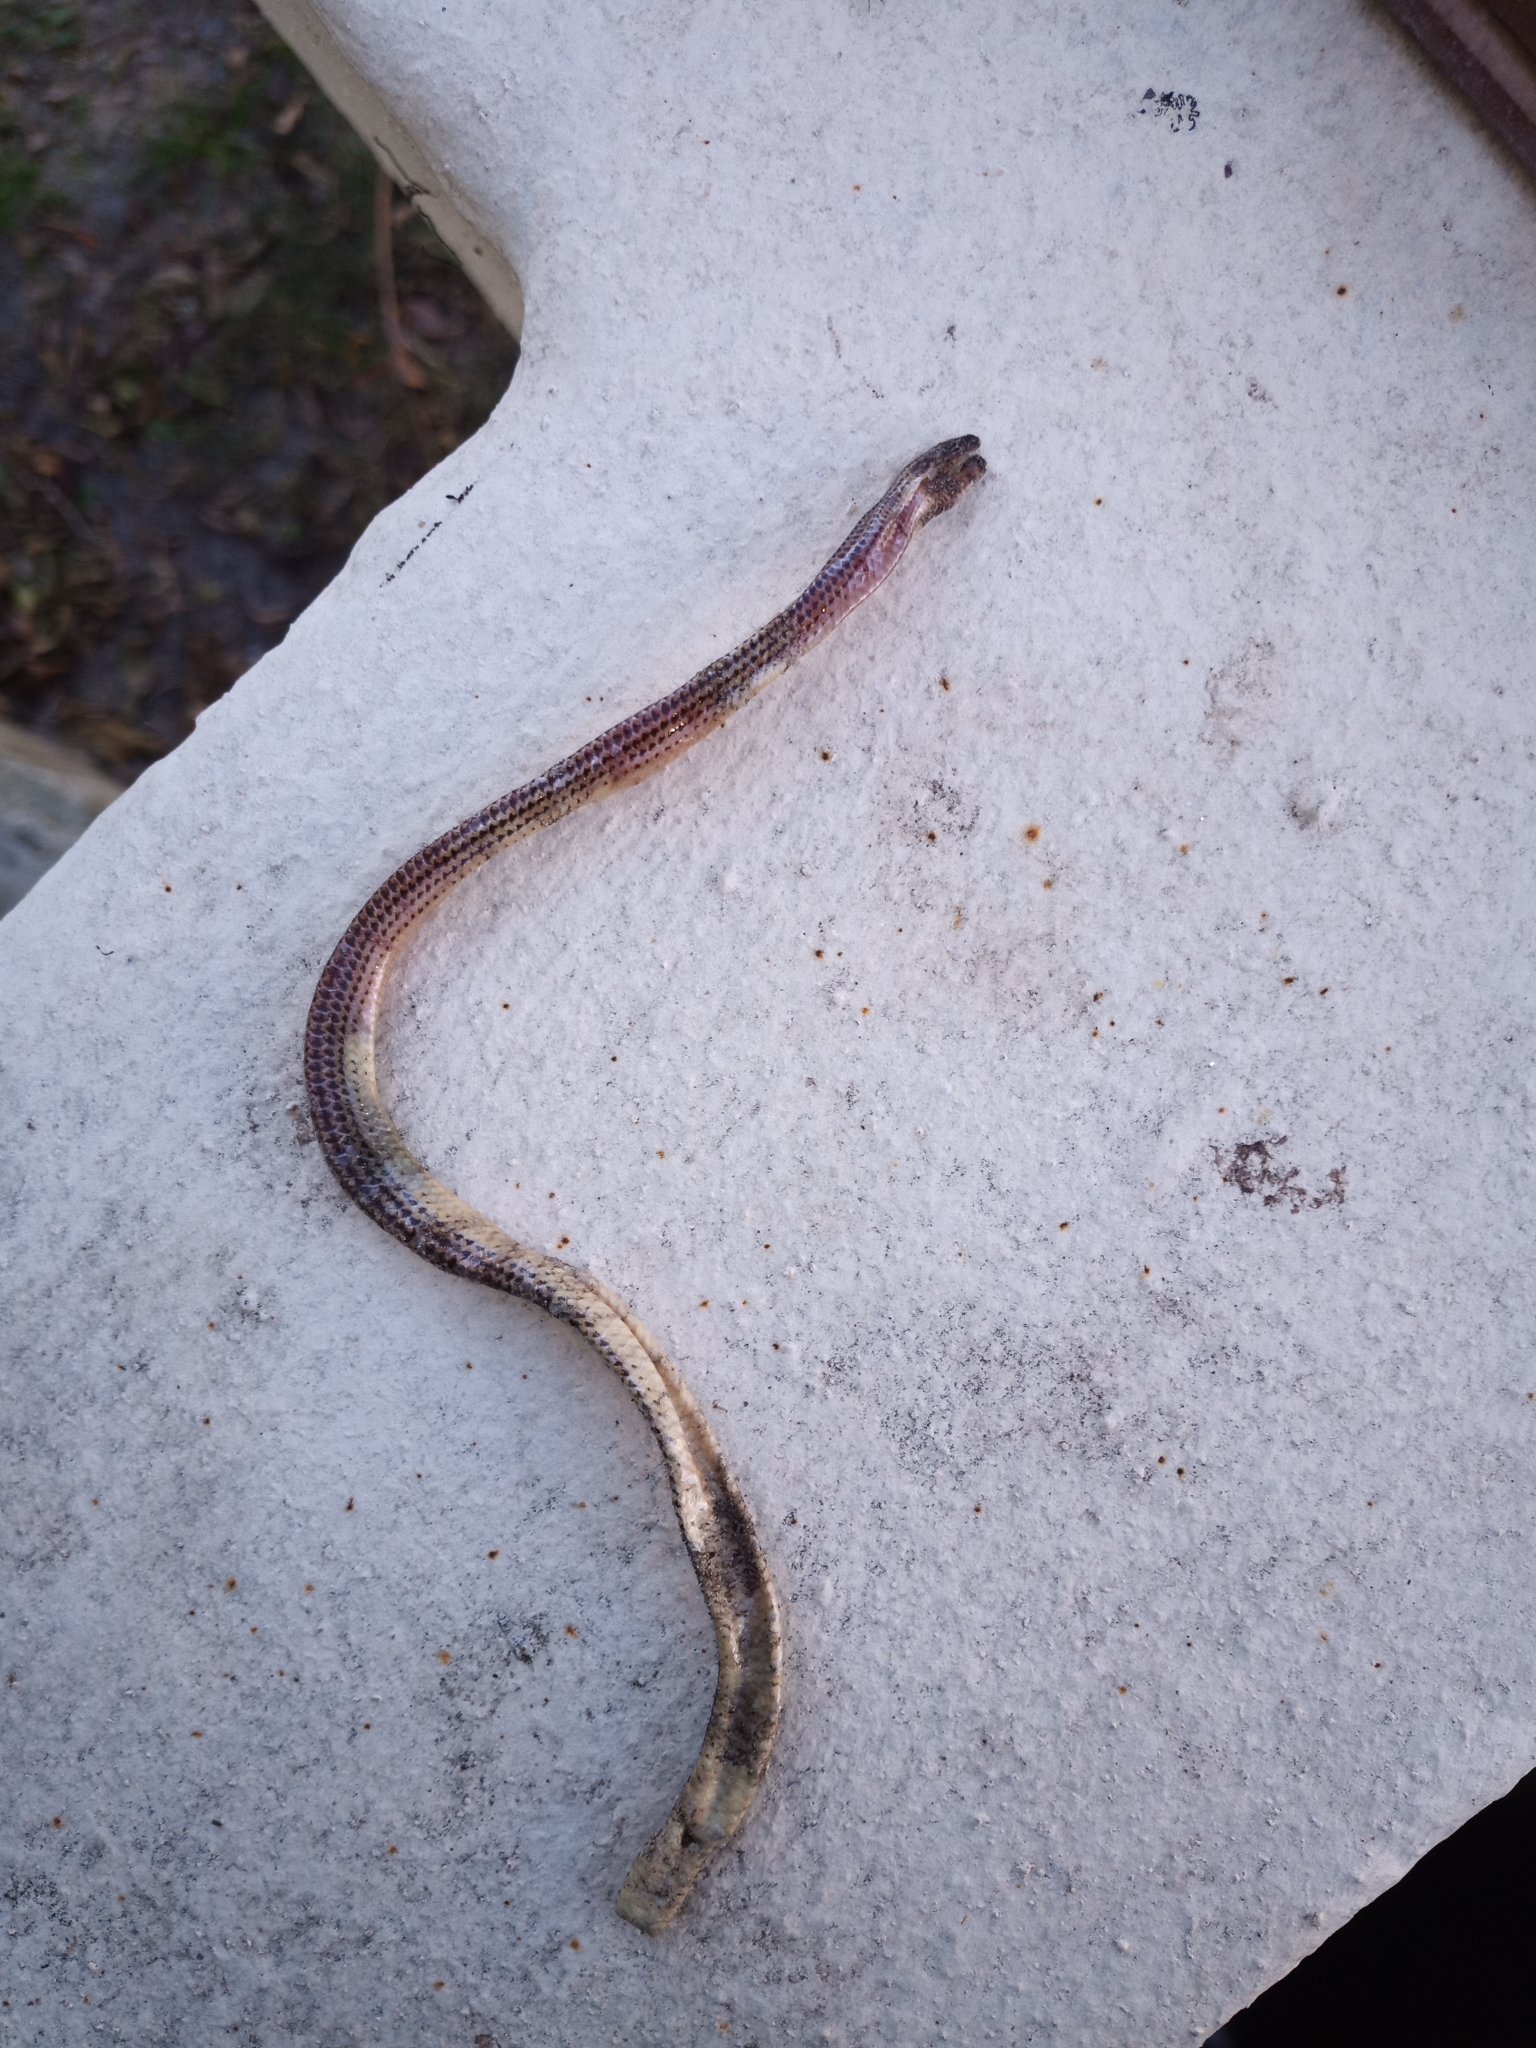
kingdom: Animalia
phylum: Chordata
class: Squamata
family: Scincidae
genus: Acontias
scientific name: Acontias meleagris
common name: Cape legless skink
